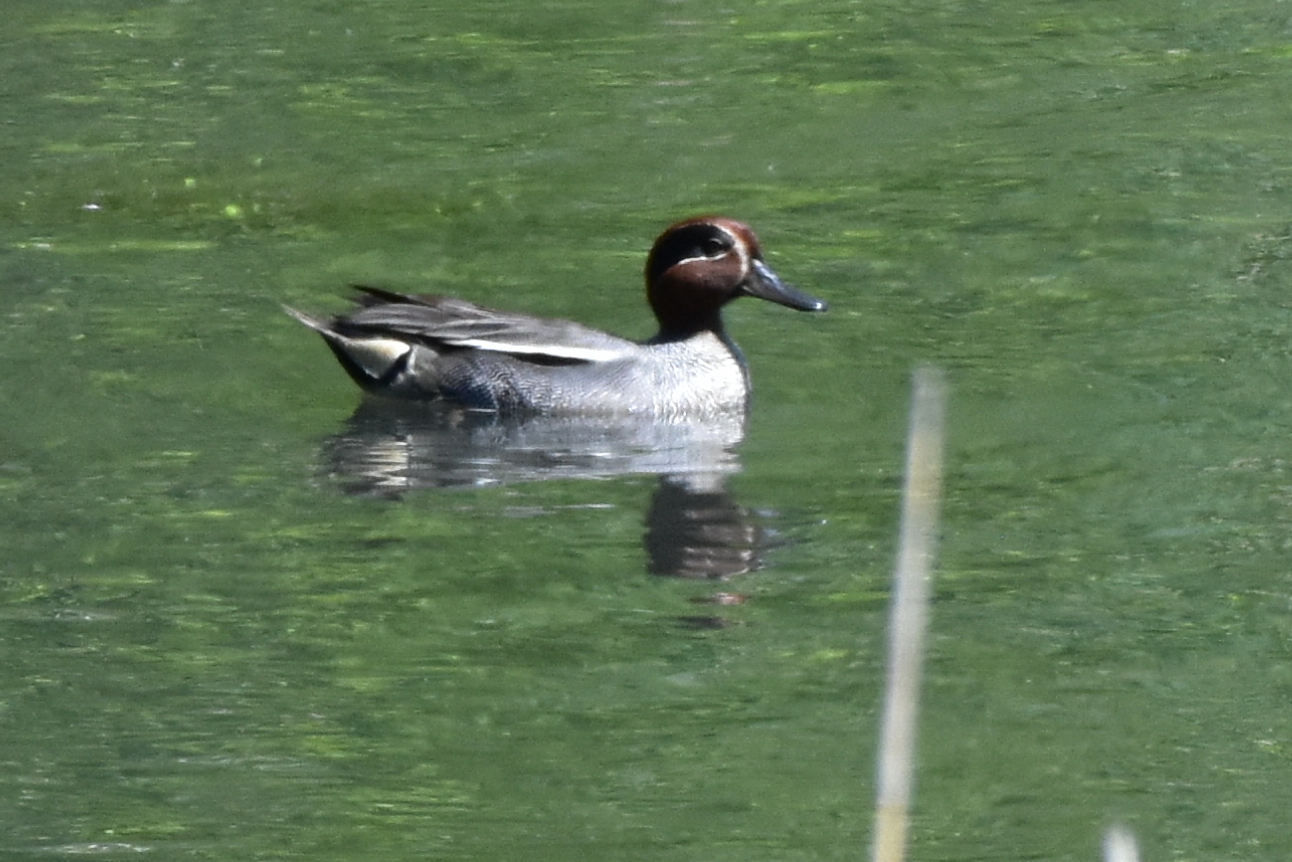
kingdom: Animalia
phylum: Chordata
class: Aves
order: Anseriformes
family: Anatidae
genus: Anas
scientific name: Anas crecca
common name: Eurasian teal
